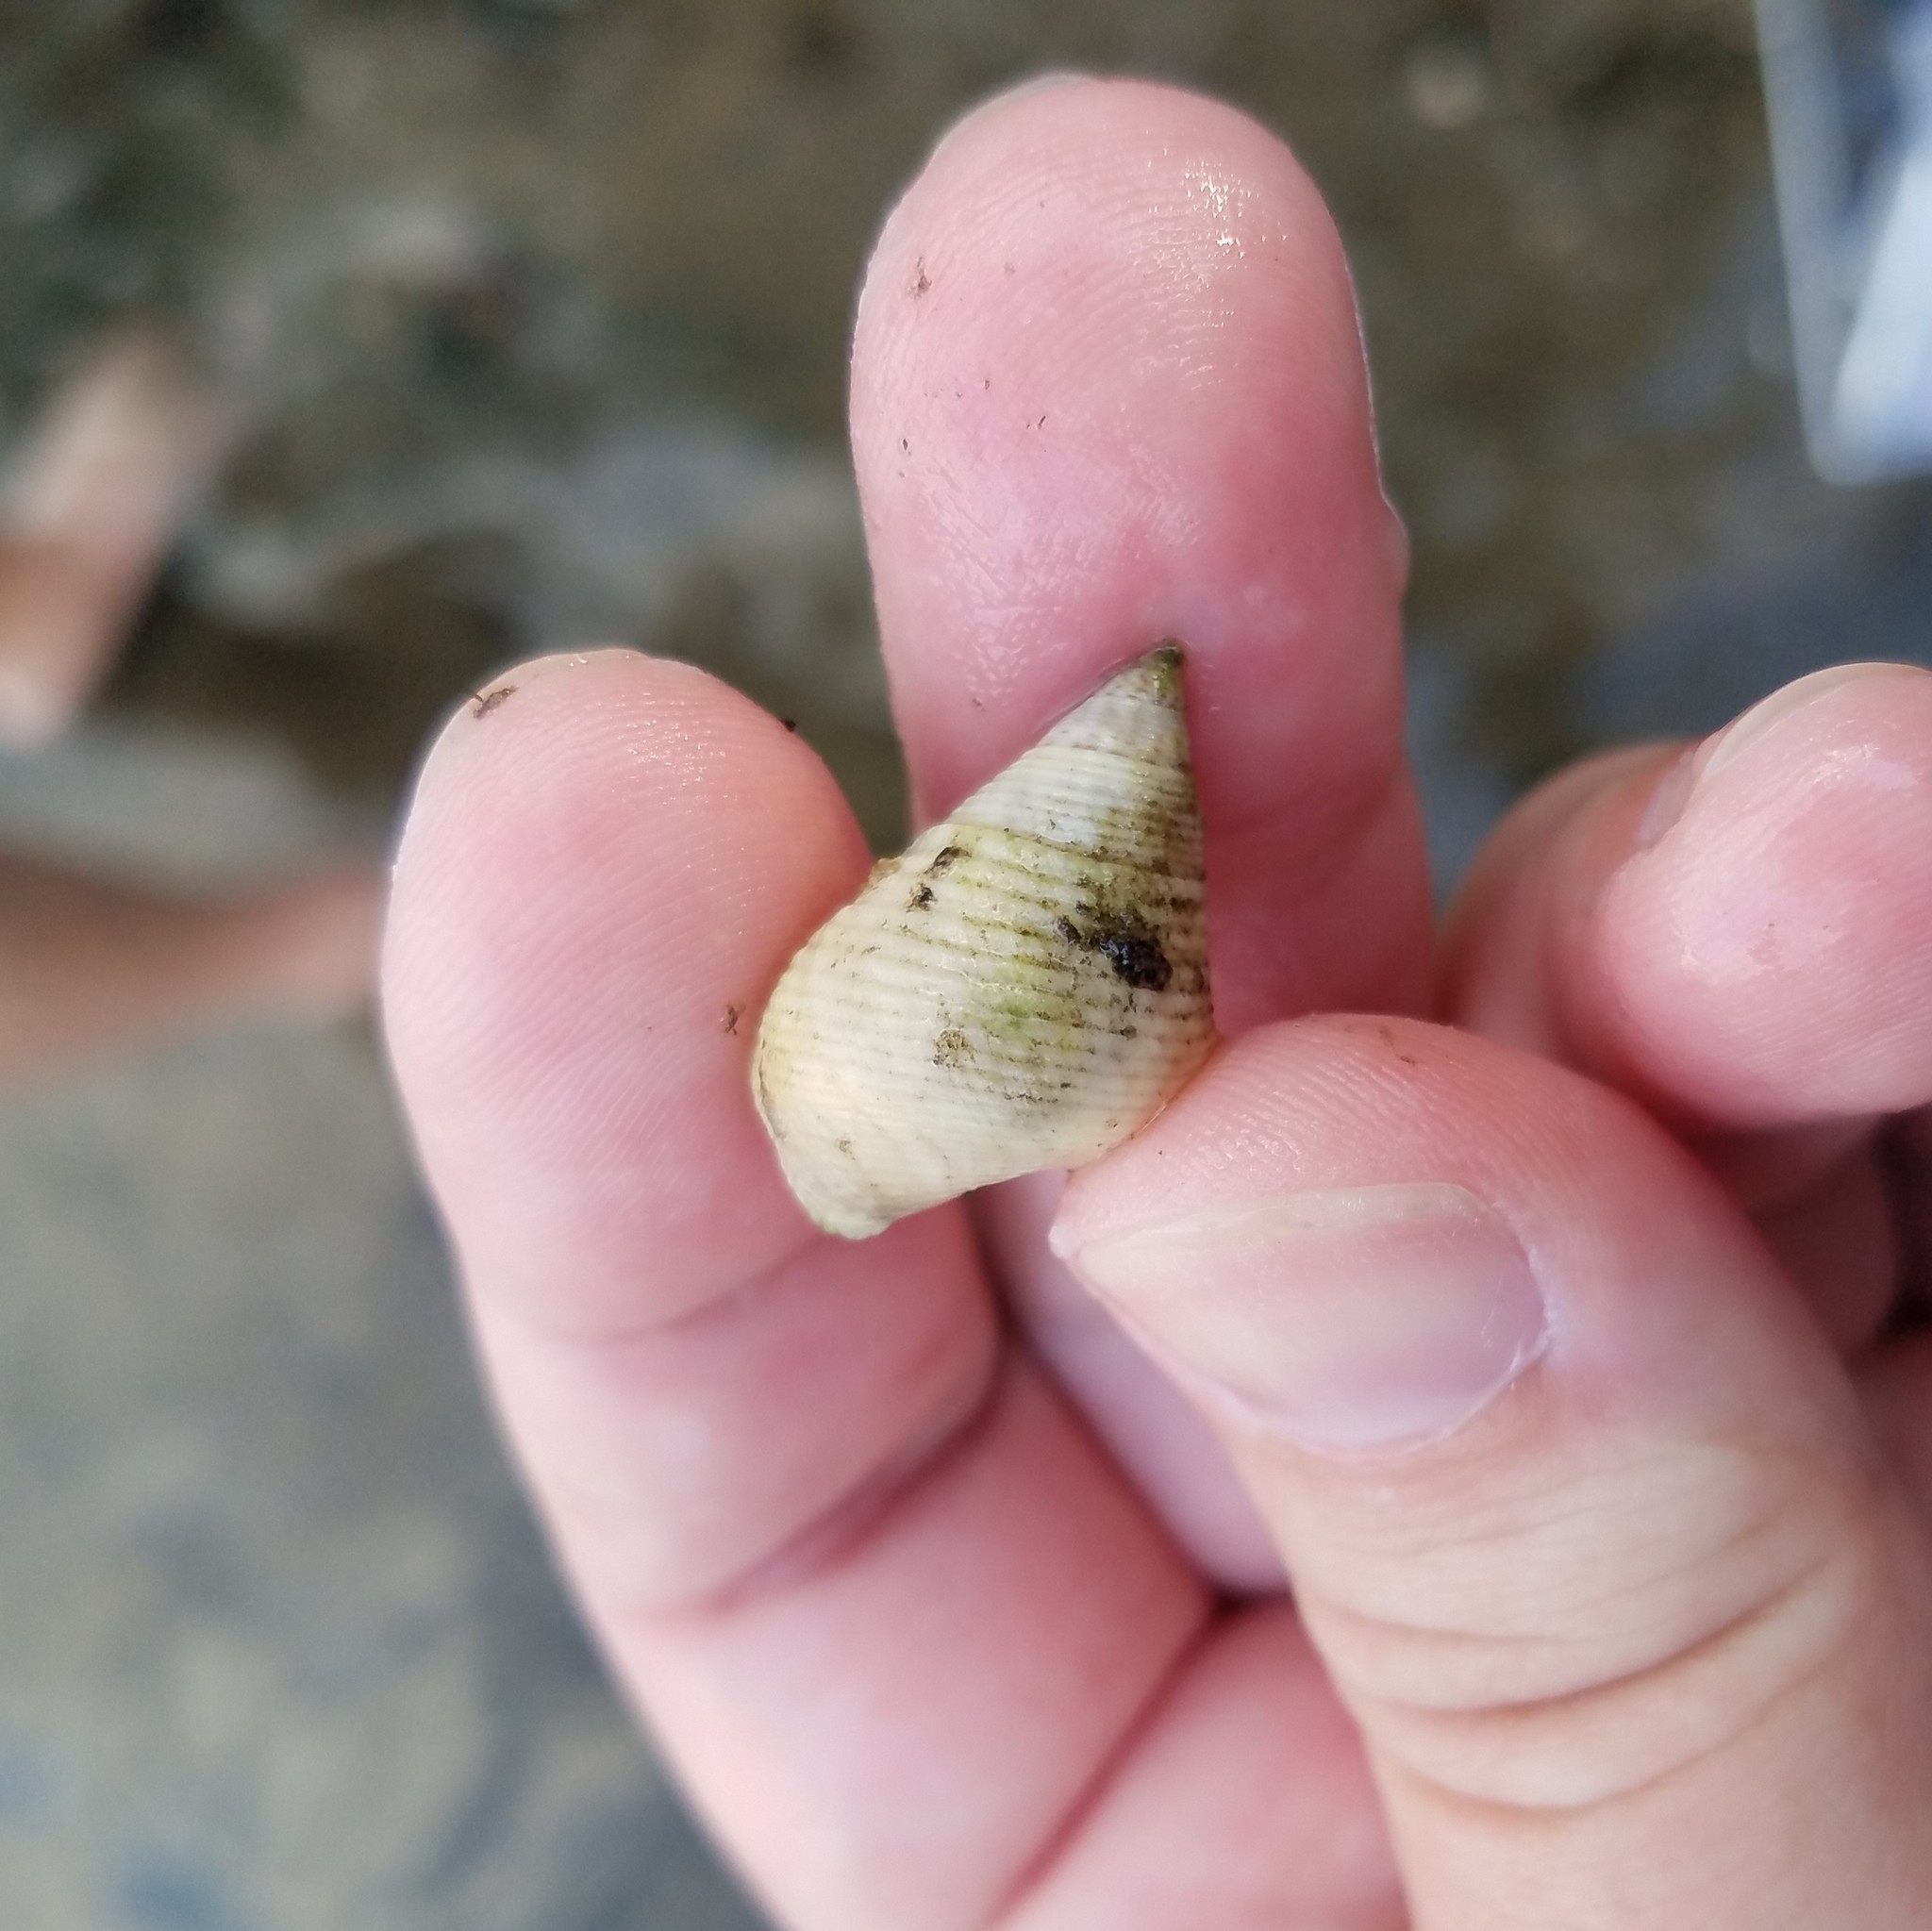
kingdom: Animalia
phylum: Mollusca
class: Gastropoda
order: Littorinimorpha
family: Littorinidae
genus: Littoraria
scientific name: Littoraria irrorata
